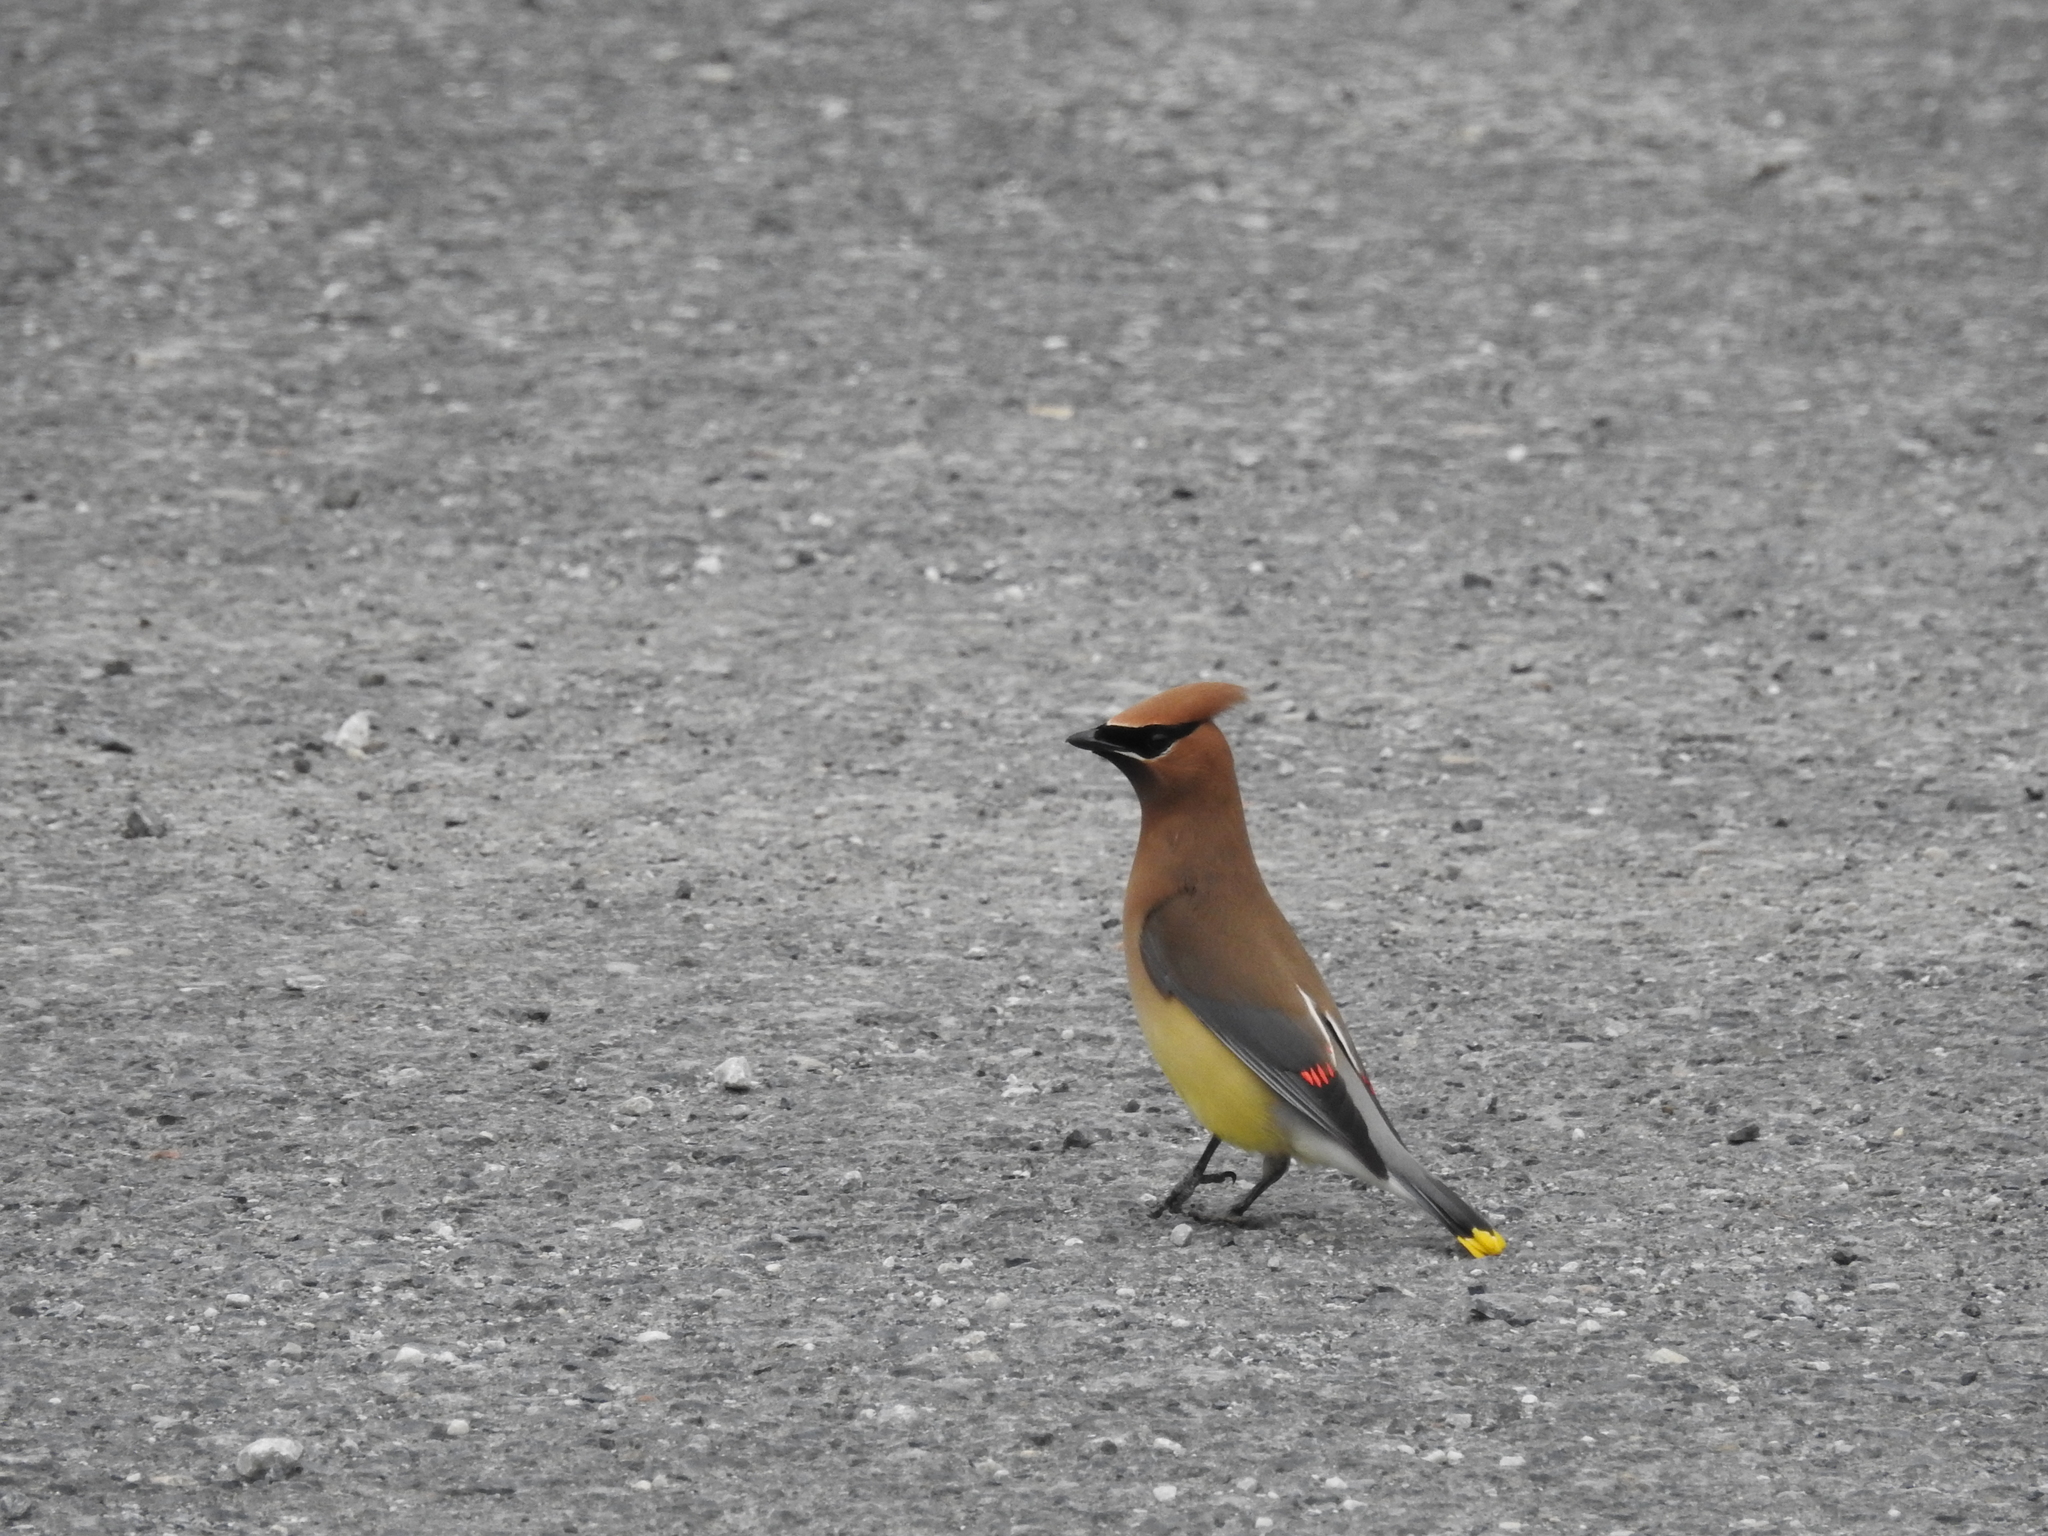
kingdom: Animalia
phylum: Chordata
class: Aves
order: Passeriformes
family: Bombycillidae
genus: Bombycilla
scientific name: Bombycilla cedrorum
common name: Cedar waxwing
